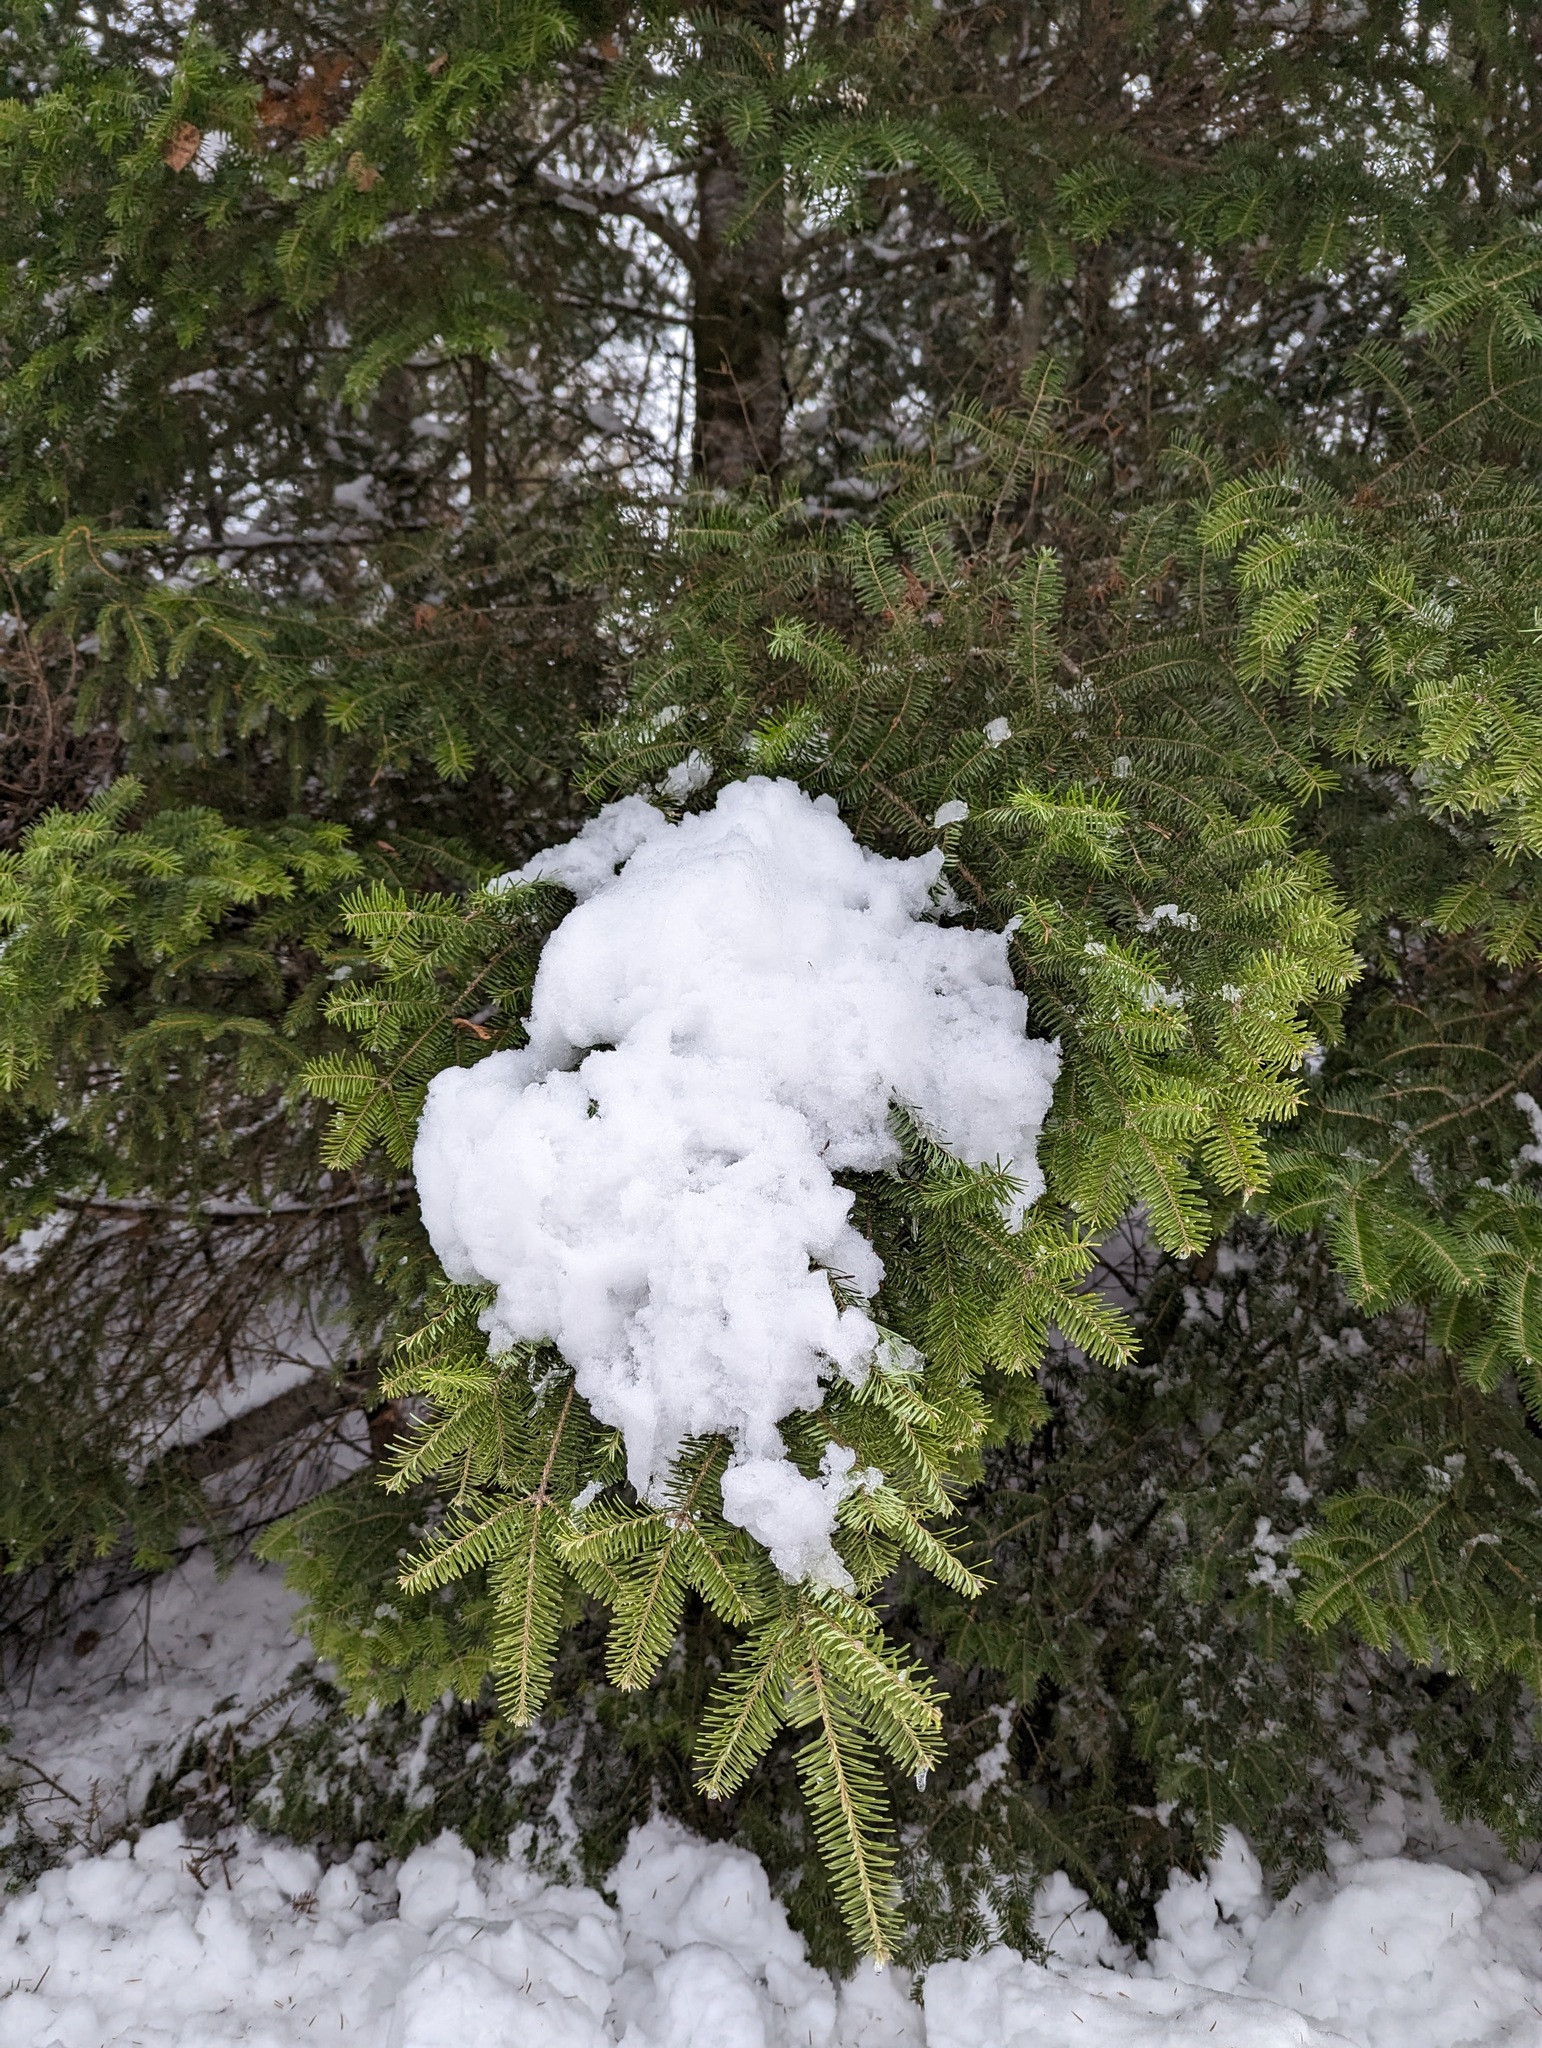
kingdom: Plantae
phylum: Tracheophyta
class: Pinopsida
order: Pinales
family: Pinaceae
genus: Abies
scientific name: Abies balsamea
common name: Balsam fir
